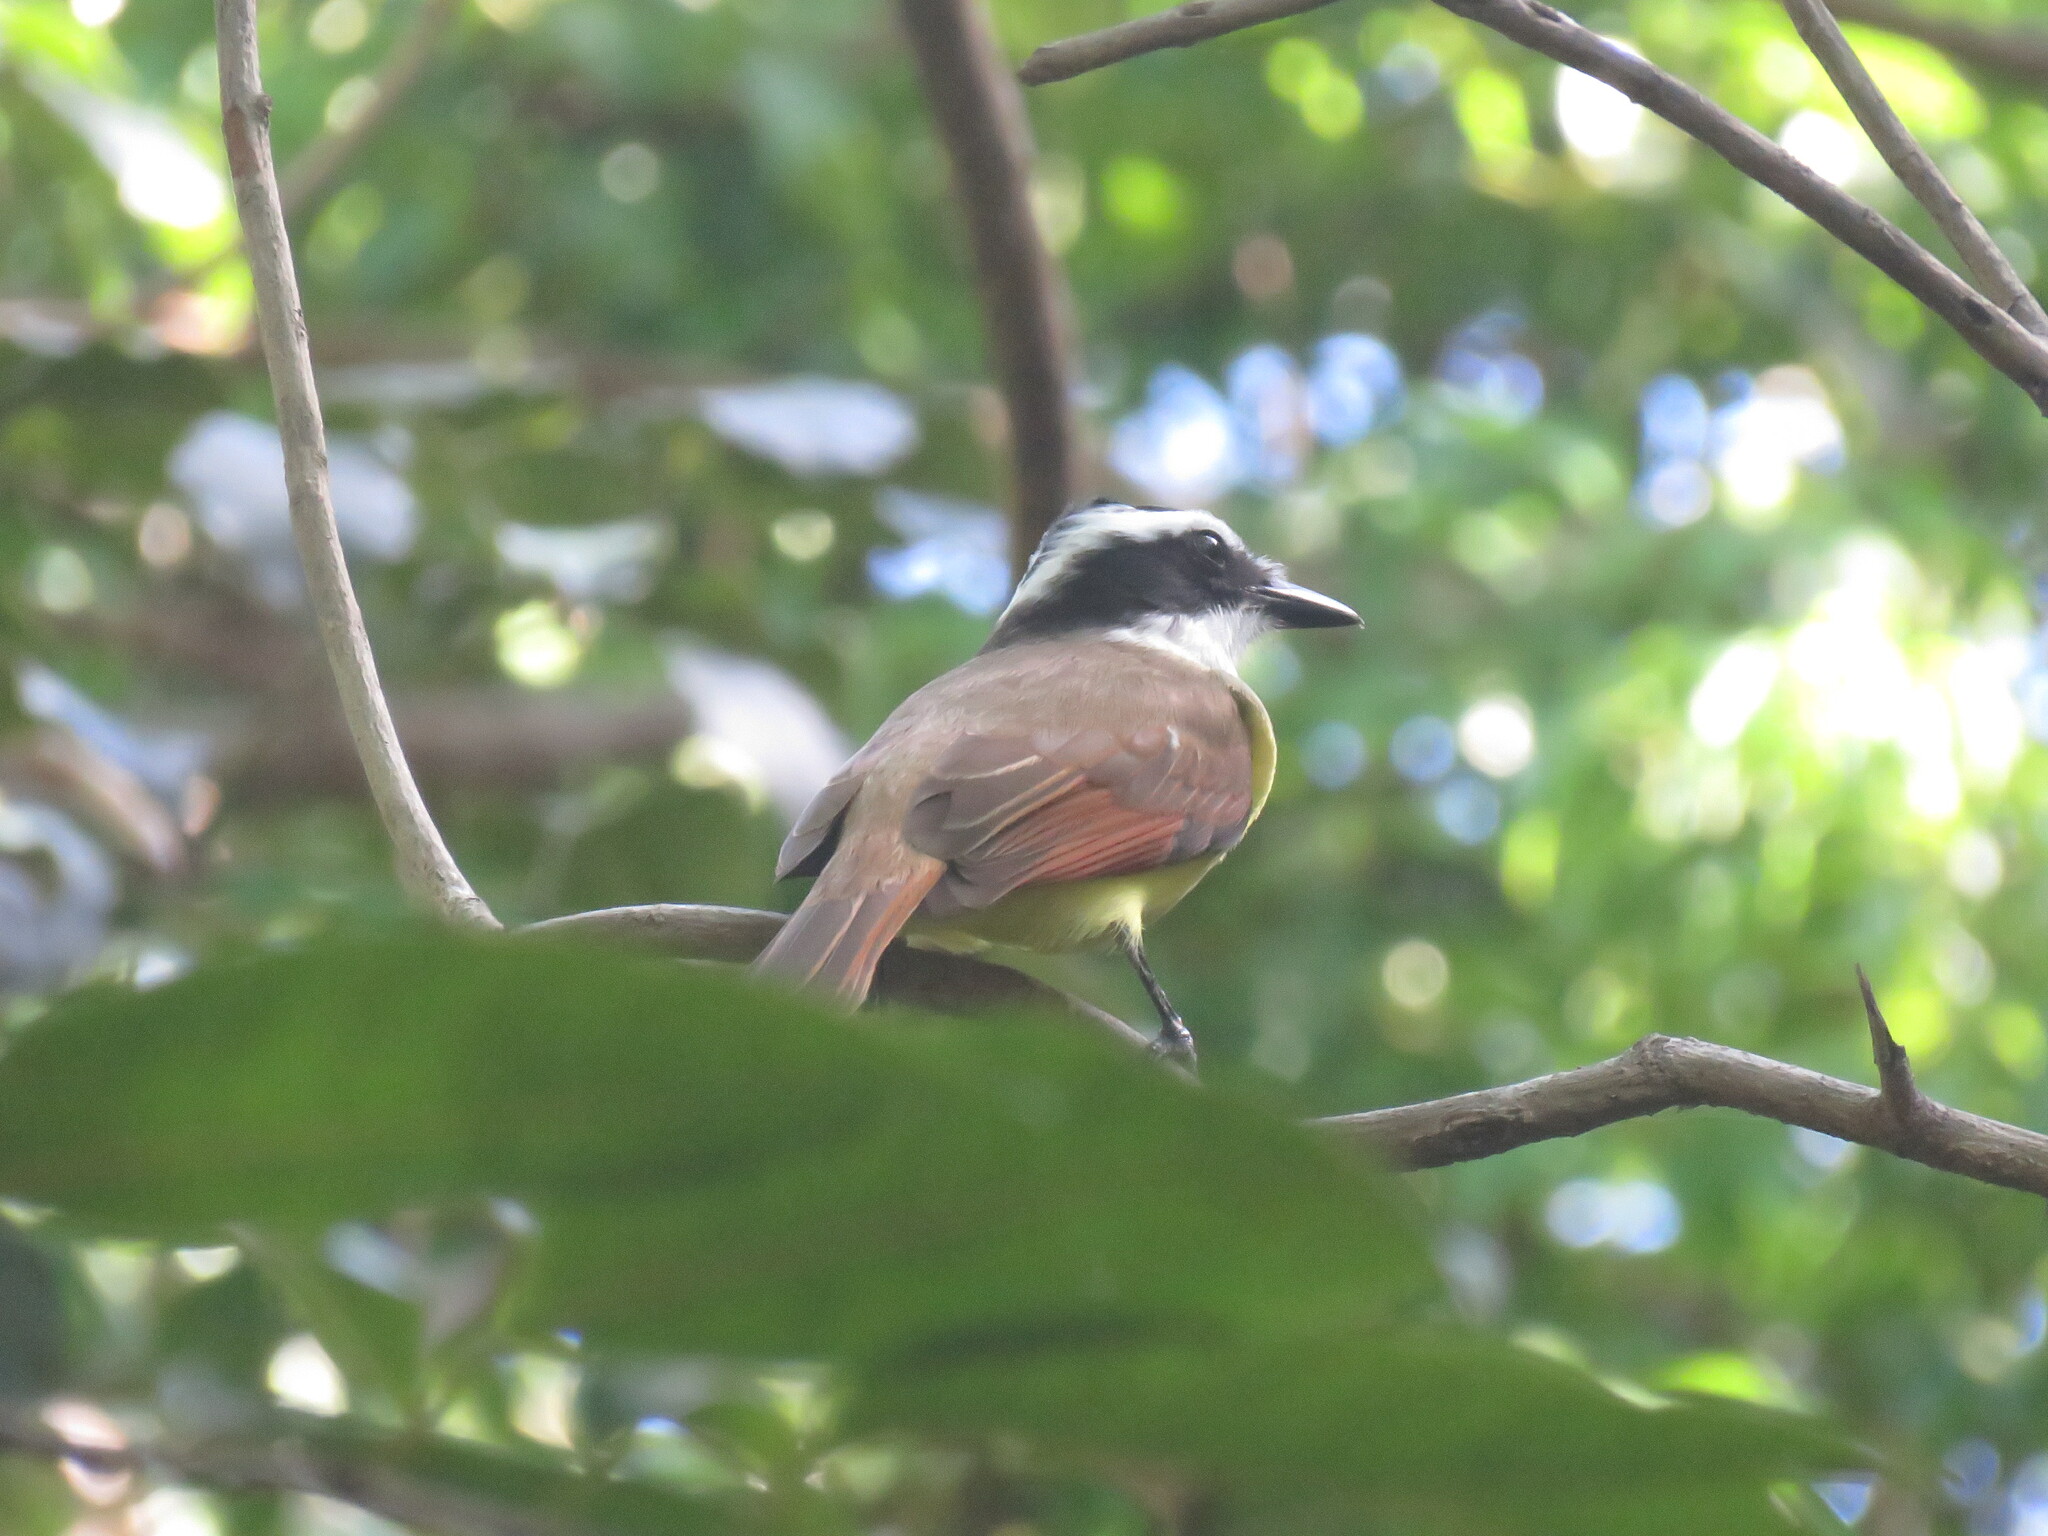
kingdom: Animalia
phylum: Chordata
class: Aves
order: Passeriformes
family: Tyrannidae
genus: Pitangus
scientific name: Pitangus sulphuratus
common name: Great kiskadee
